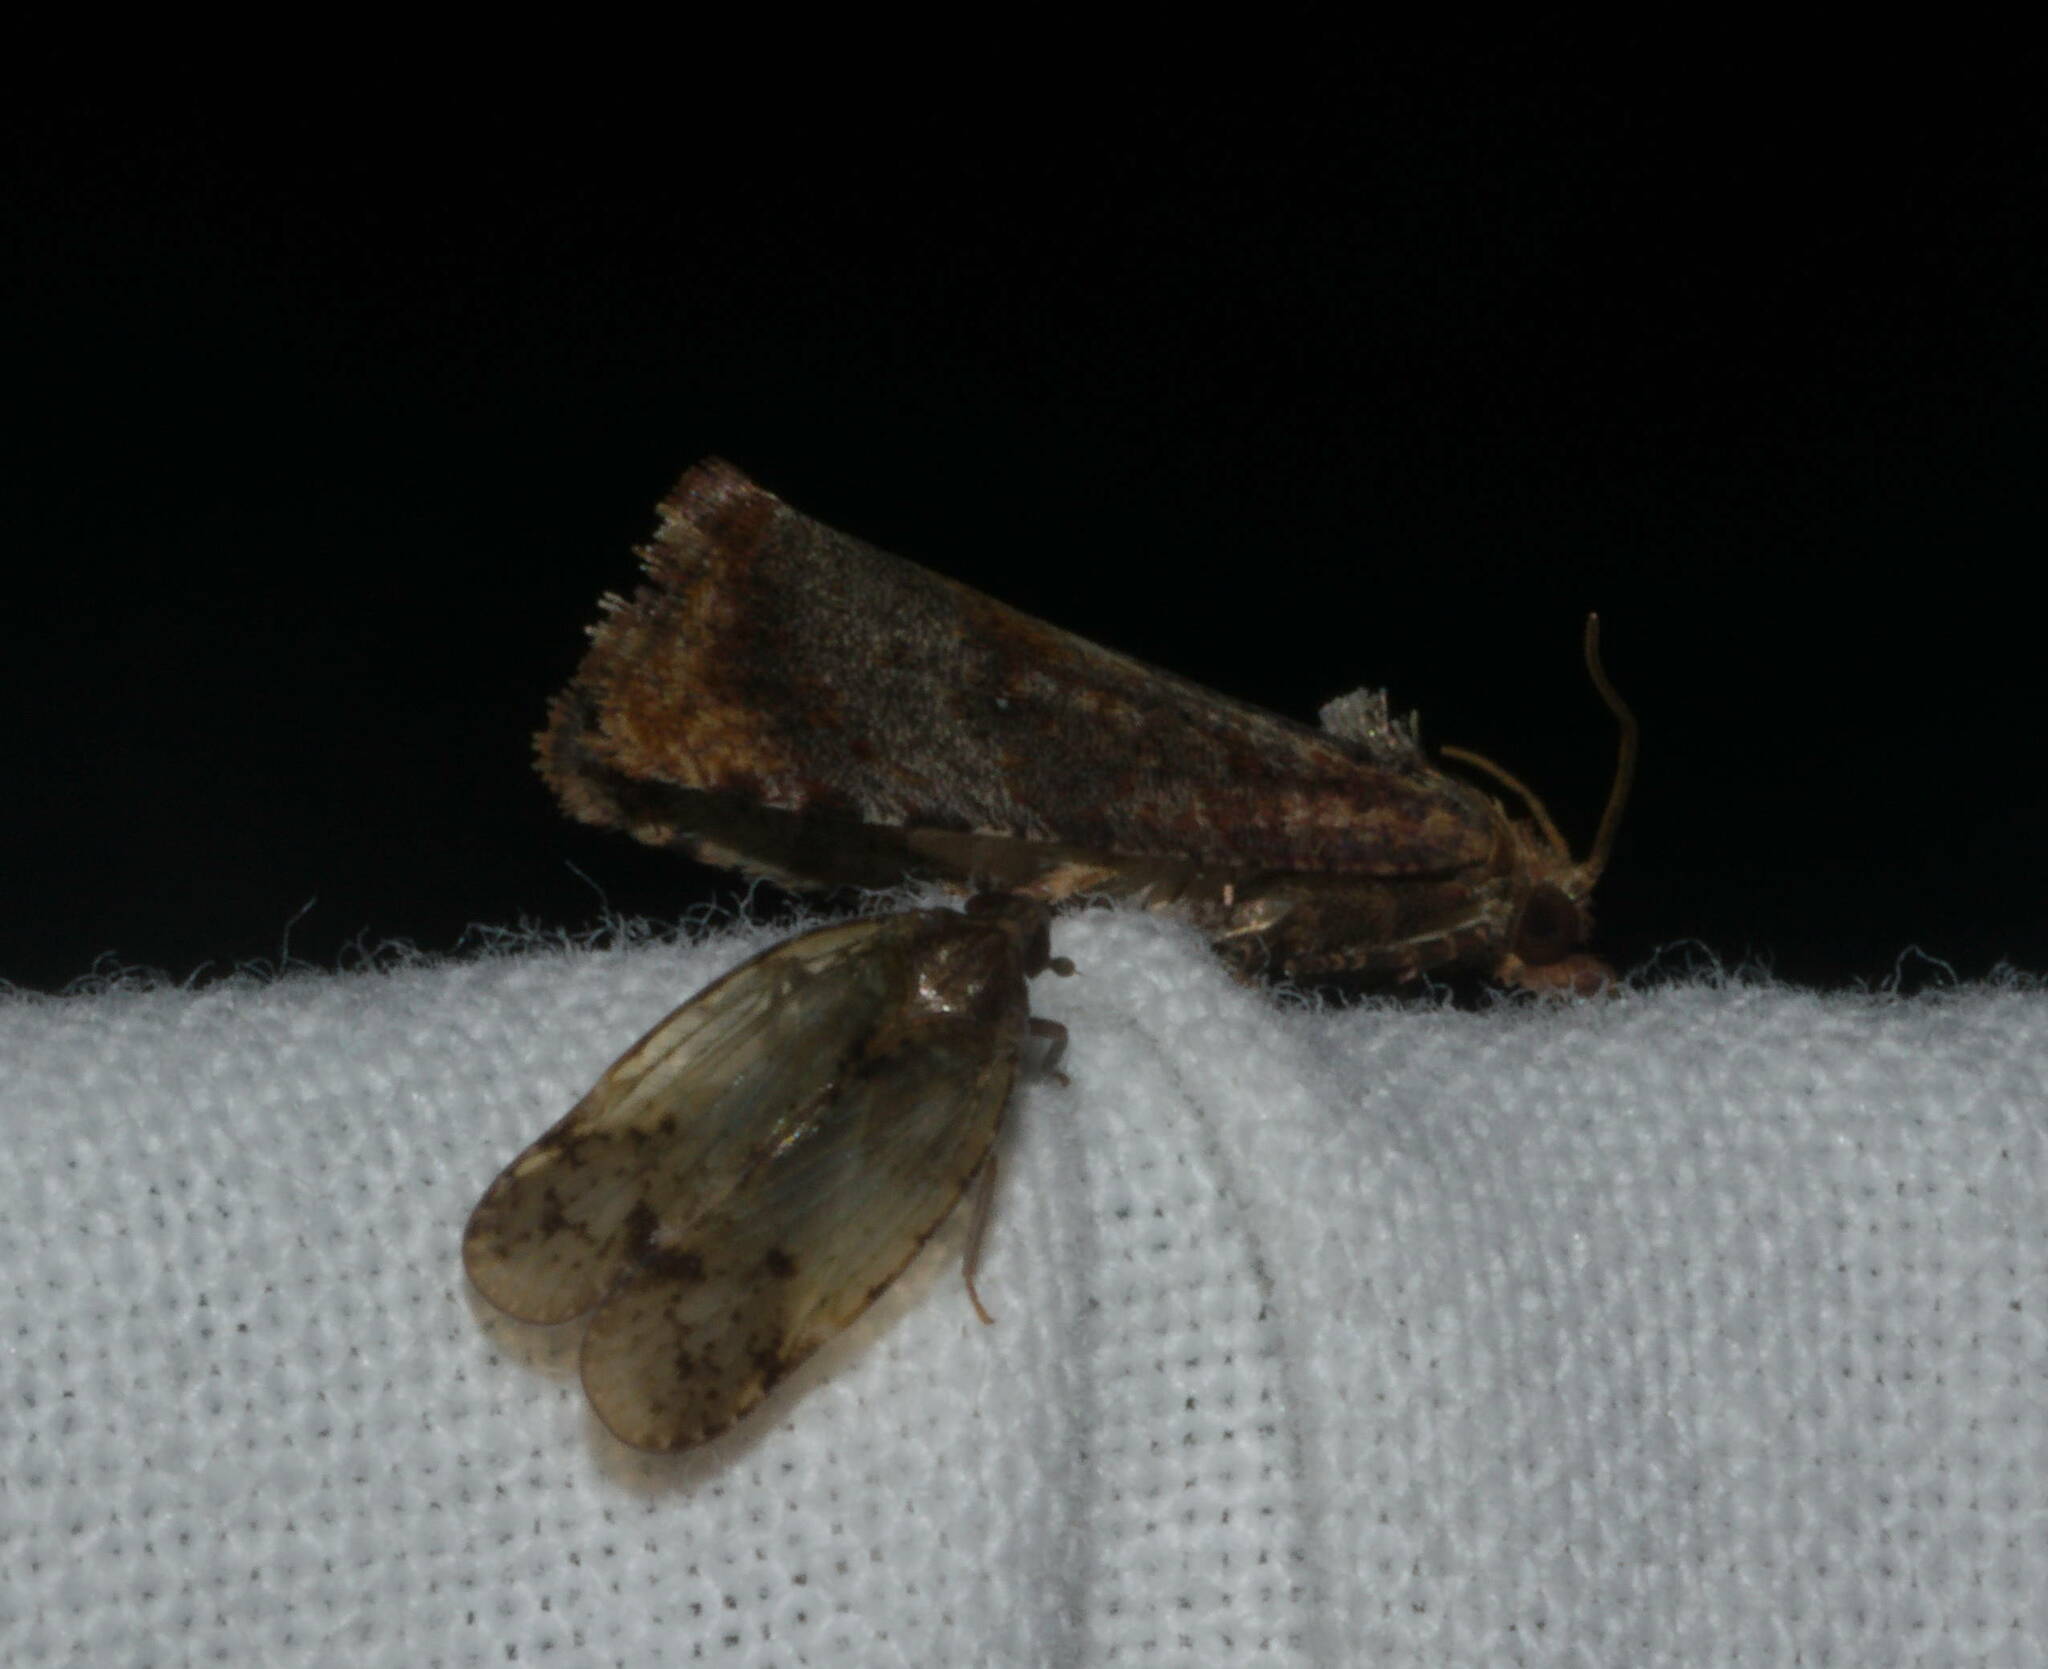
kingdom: Animalia
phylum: Arthropoda
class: Insecta
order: Lepidoptera
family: Tortricidae
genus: Cryptophlebia
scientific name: Cryptophlebia illepida
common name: Moth
